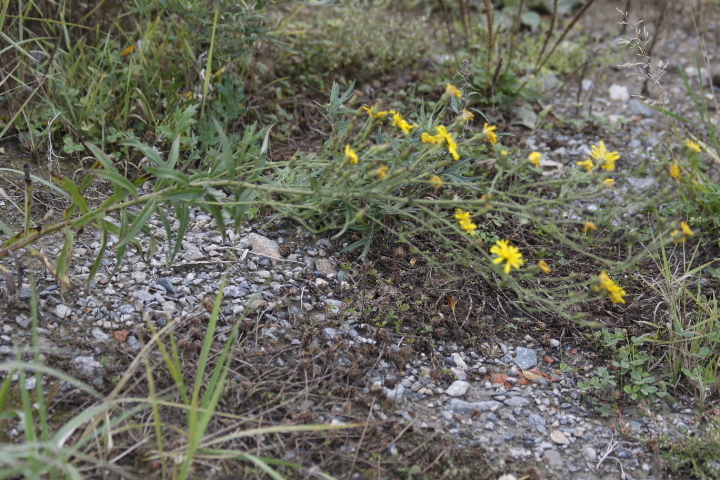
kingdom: Plantae
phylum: Tracheophyta
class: Magnoliopsida
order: Asterales
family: Asteraceae
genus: Hieracium
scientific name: Hieracium umbellatum
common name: Northern hawkweed
